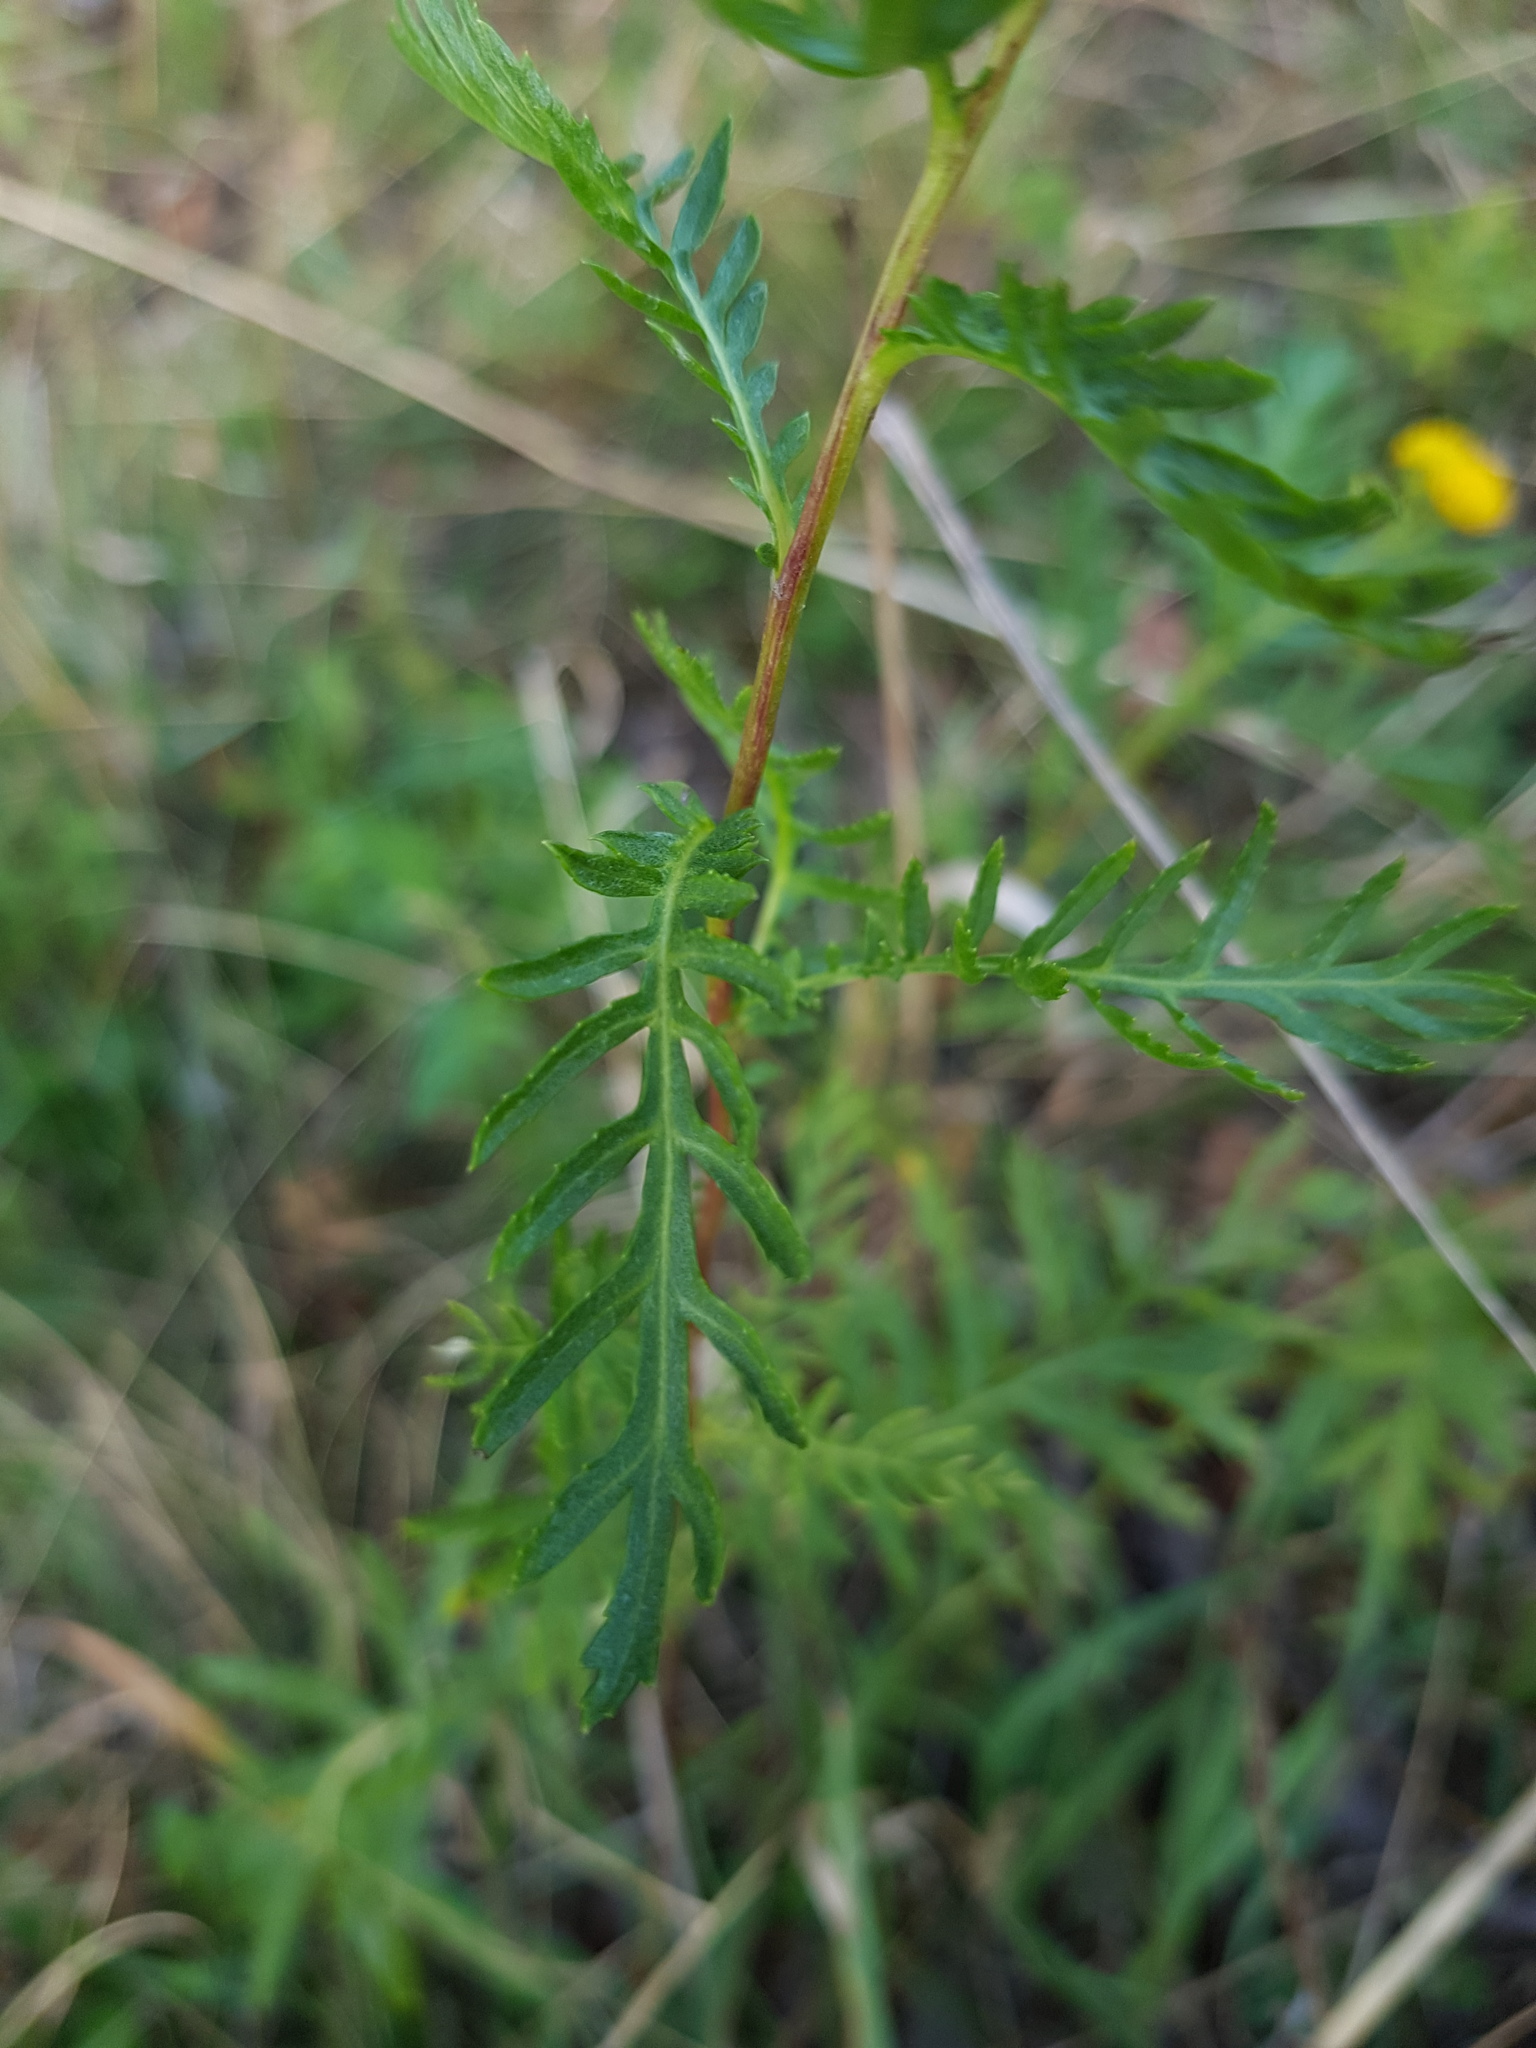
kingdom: Plantae
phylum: Tracheophyta
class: Magnoliopsida
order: Asterales
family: Asteraceae
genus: Tanacetum
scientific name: Tanacetum vulgare
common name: Common tansy
